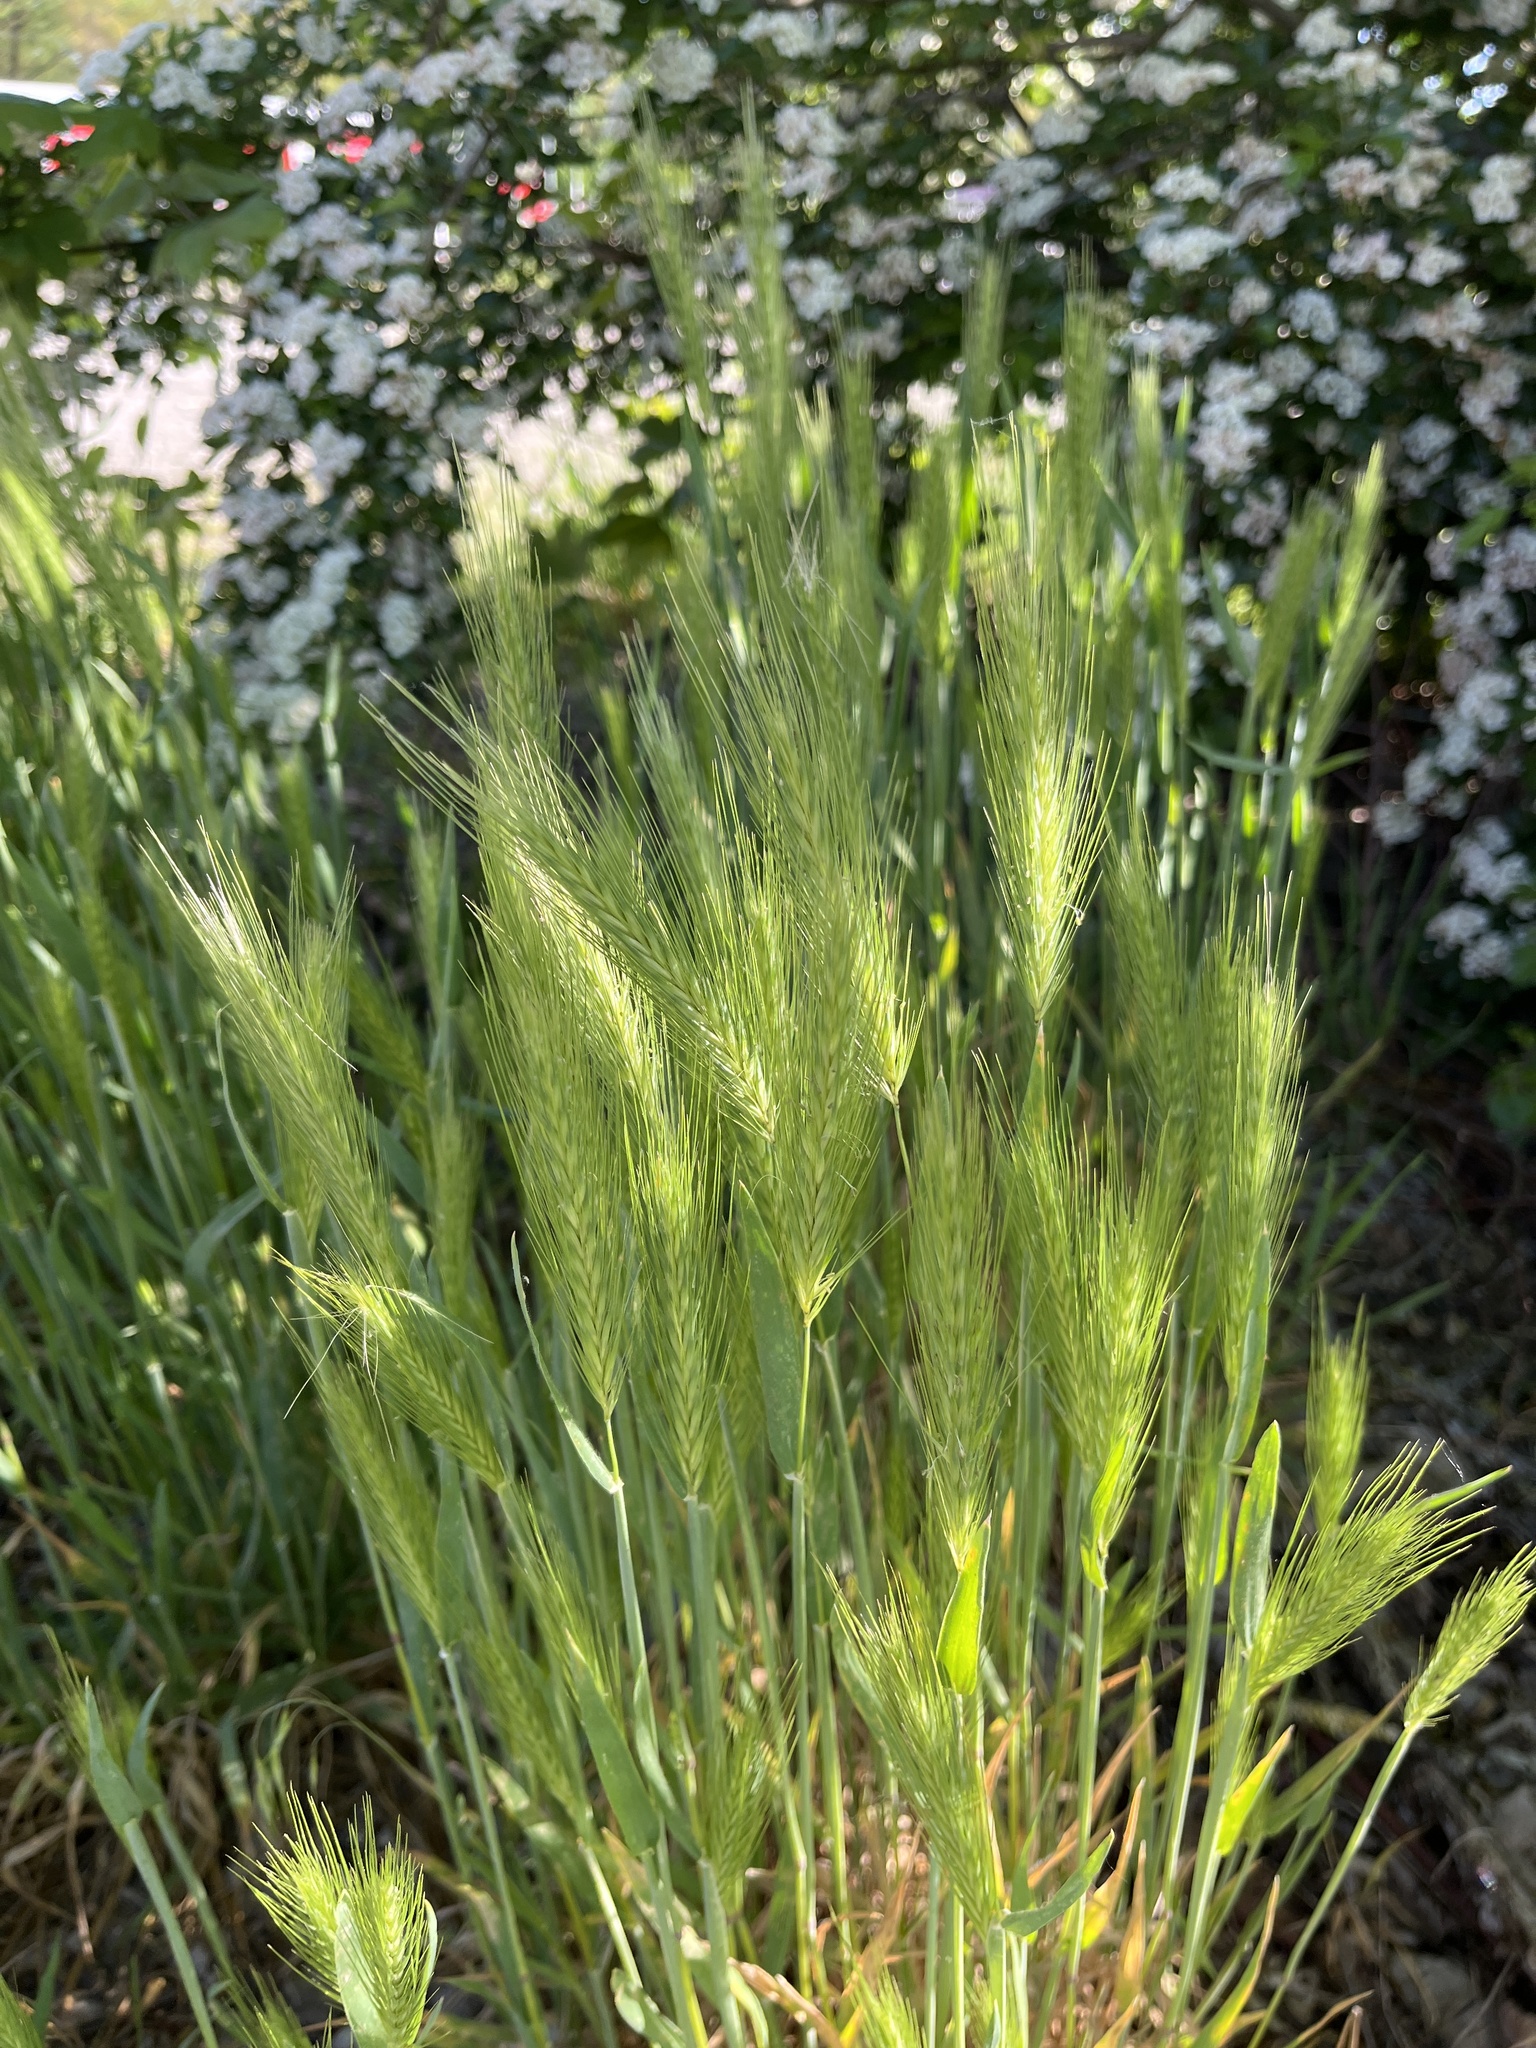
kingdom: Plantae
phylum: Tracheophyta
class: Liliopsida
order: Poales
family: Poaceae
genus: Hordeum
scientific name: Hordeum murinum
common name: Wall barley
